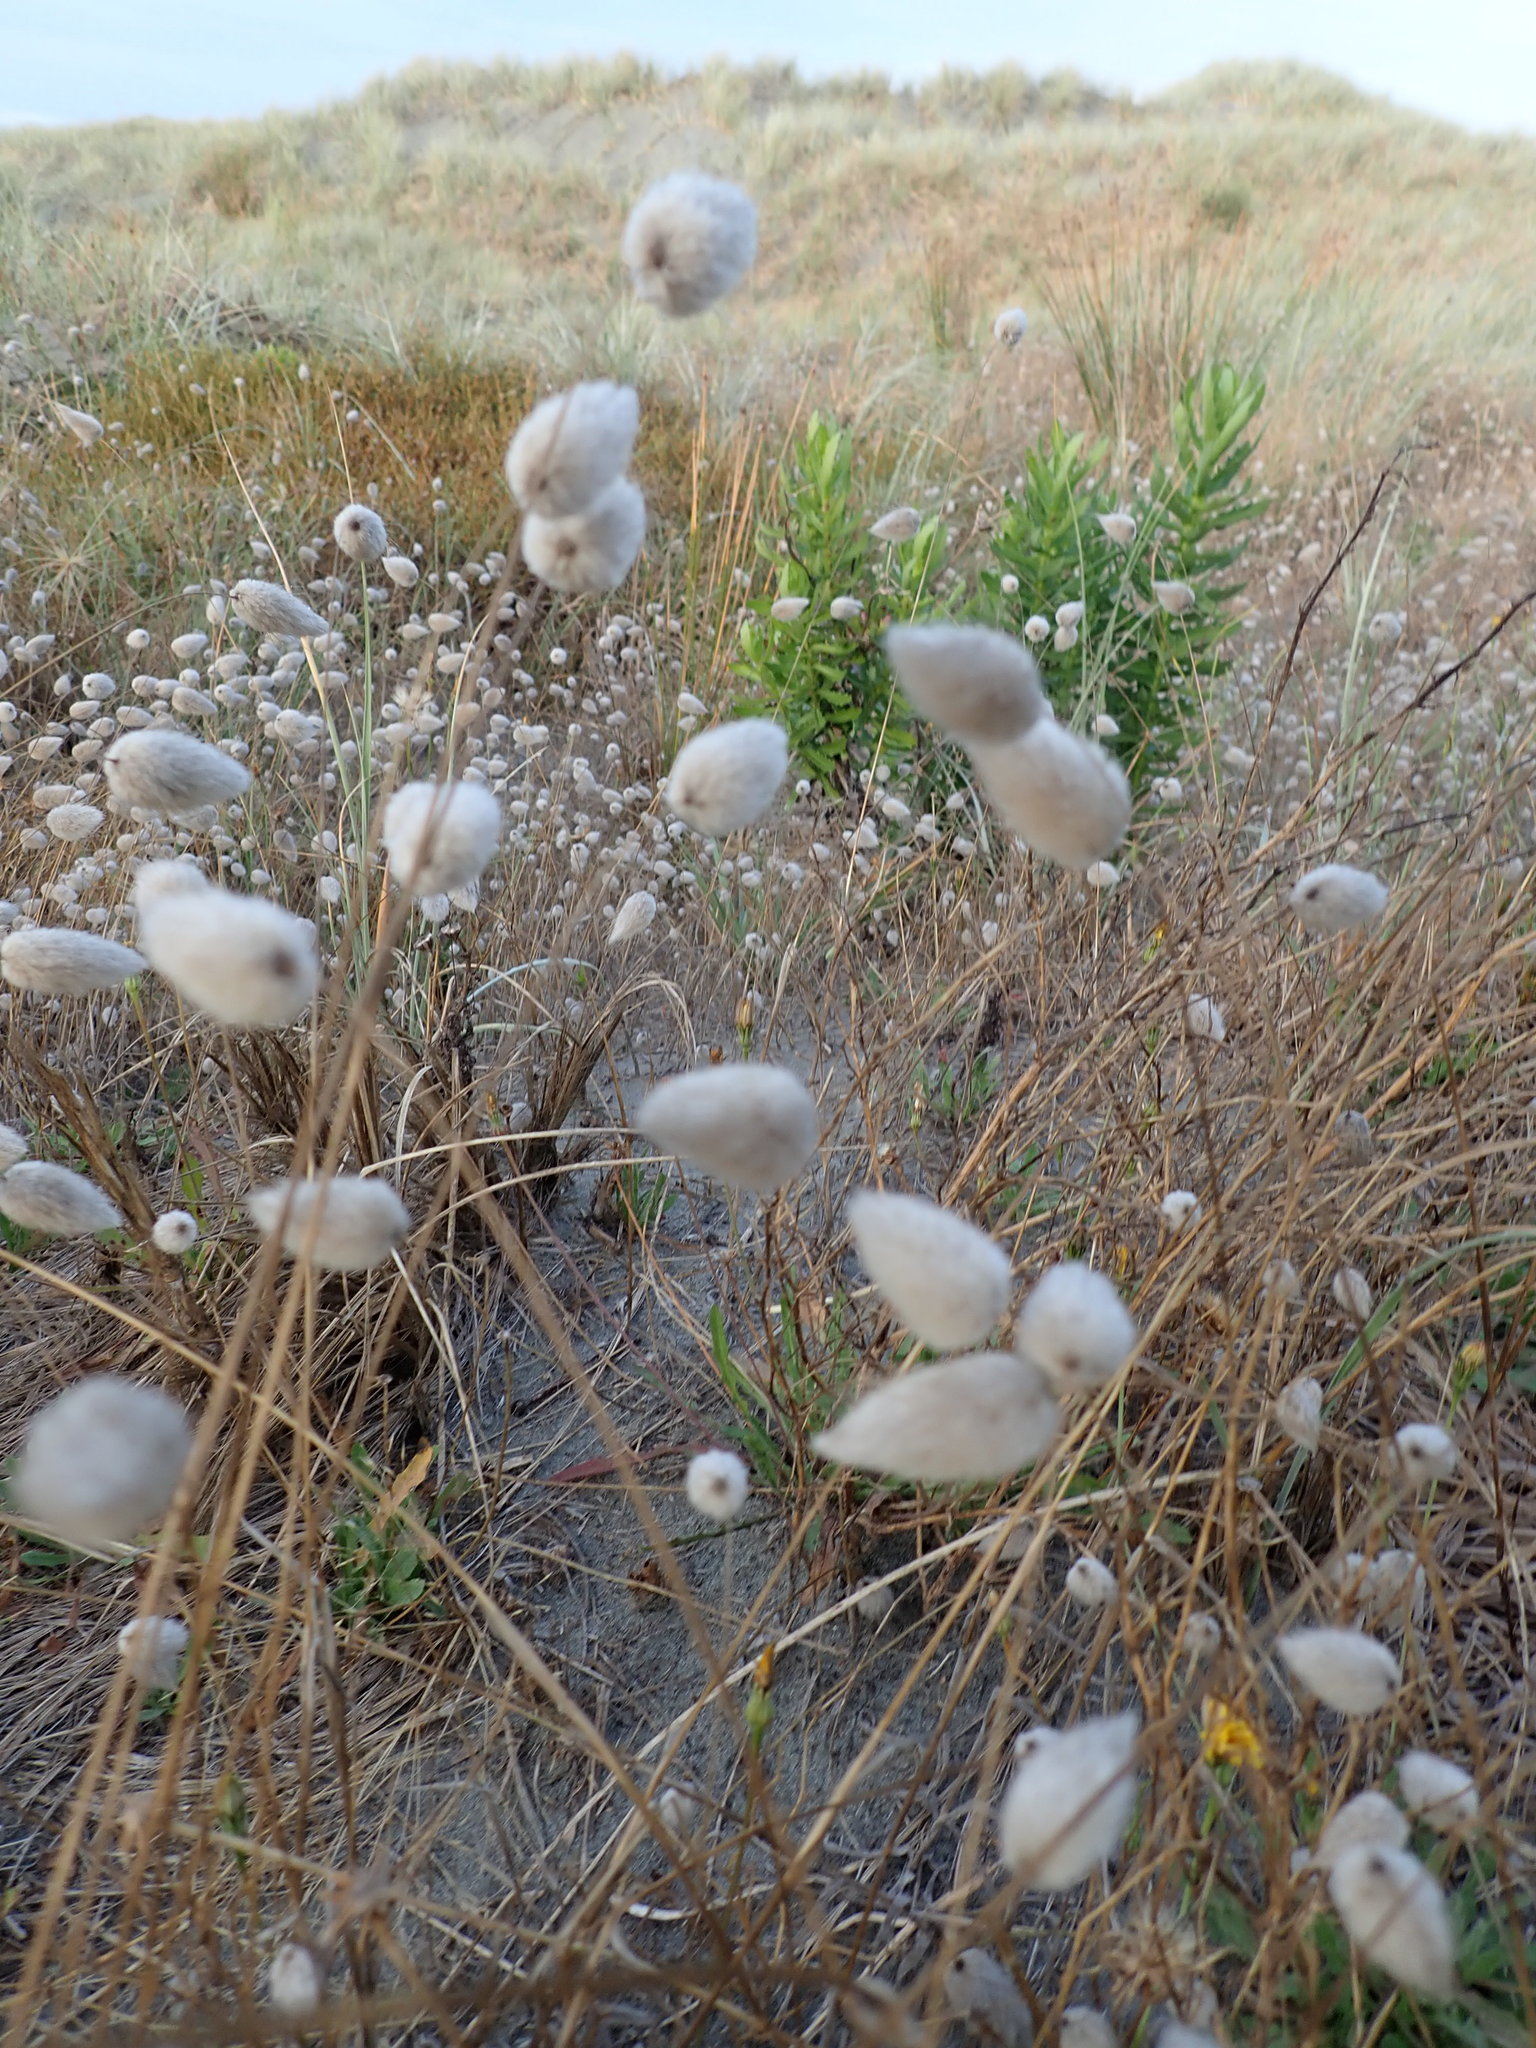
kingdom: Plantae
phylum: Tracheophyta
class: Liliopsida
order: Poales
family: Poaceae
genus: Lagurus
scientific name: Lagurus ovatus
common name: Hare's-tail
